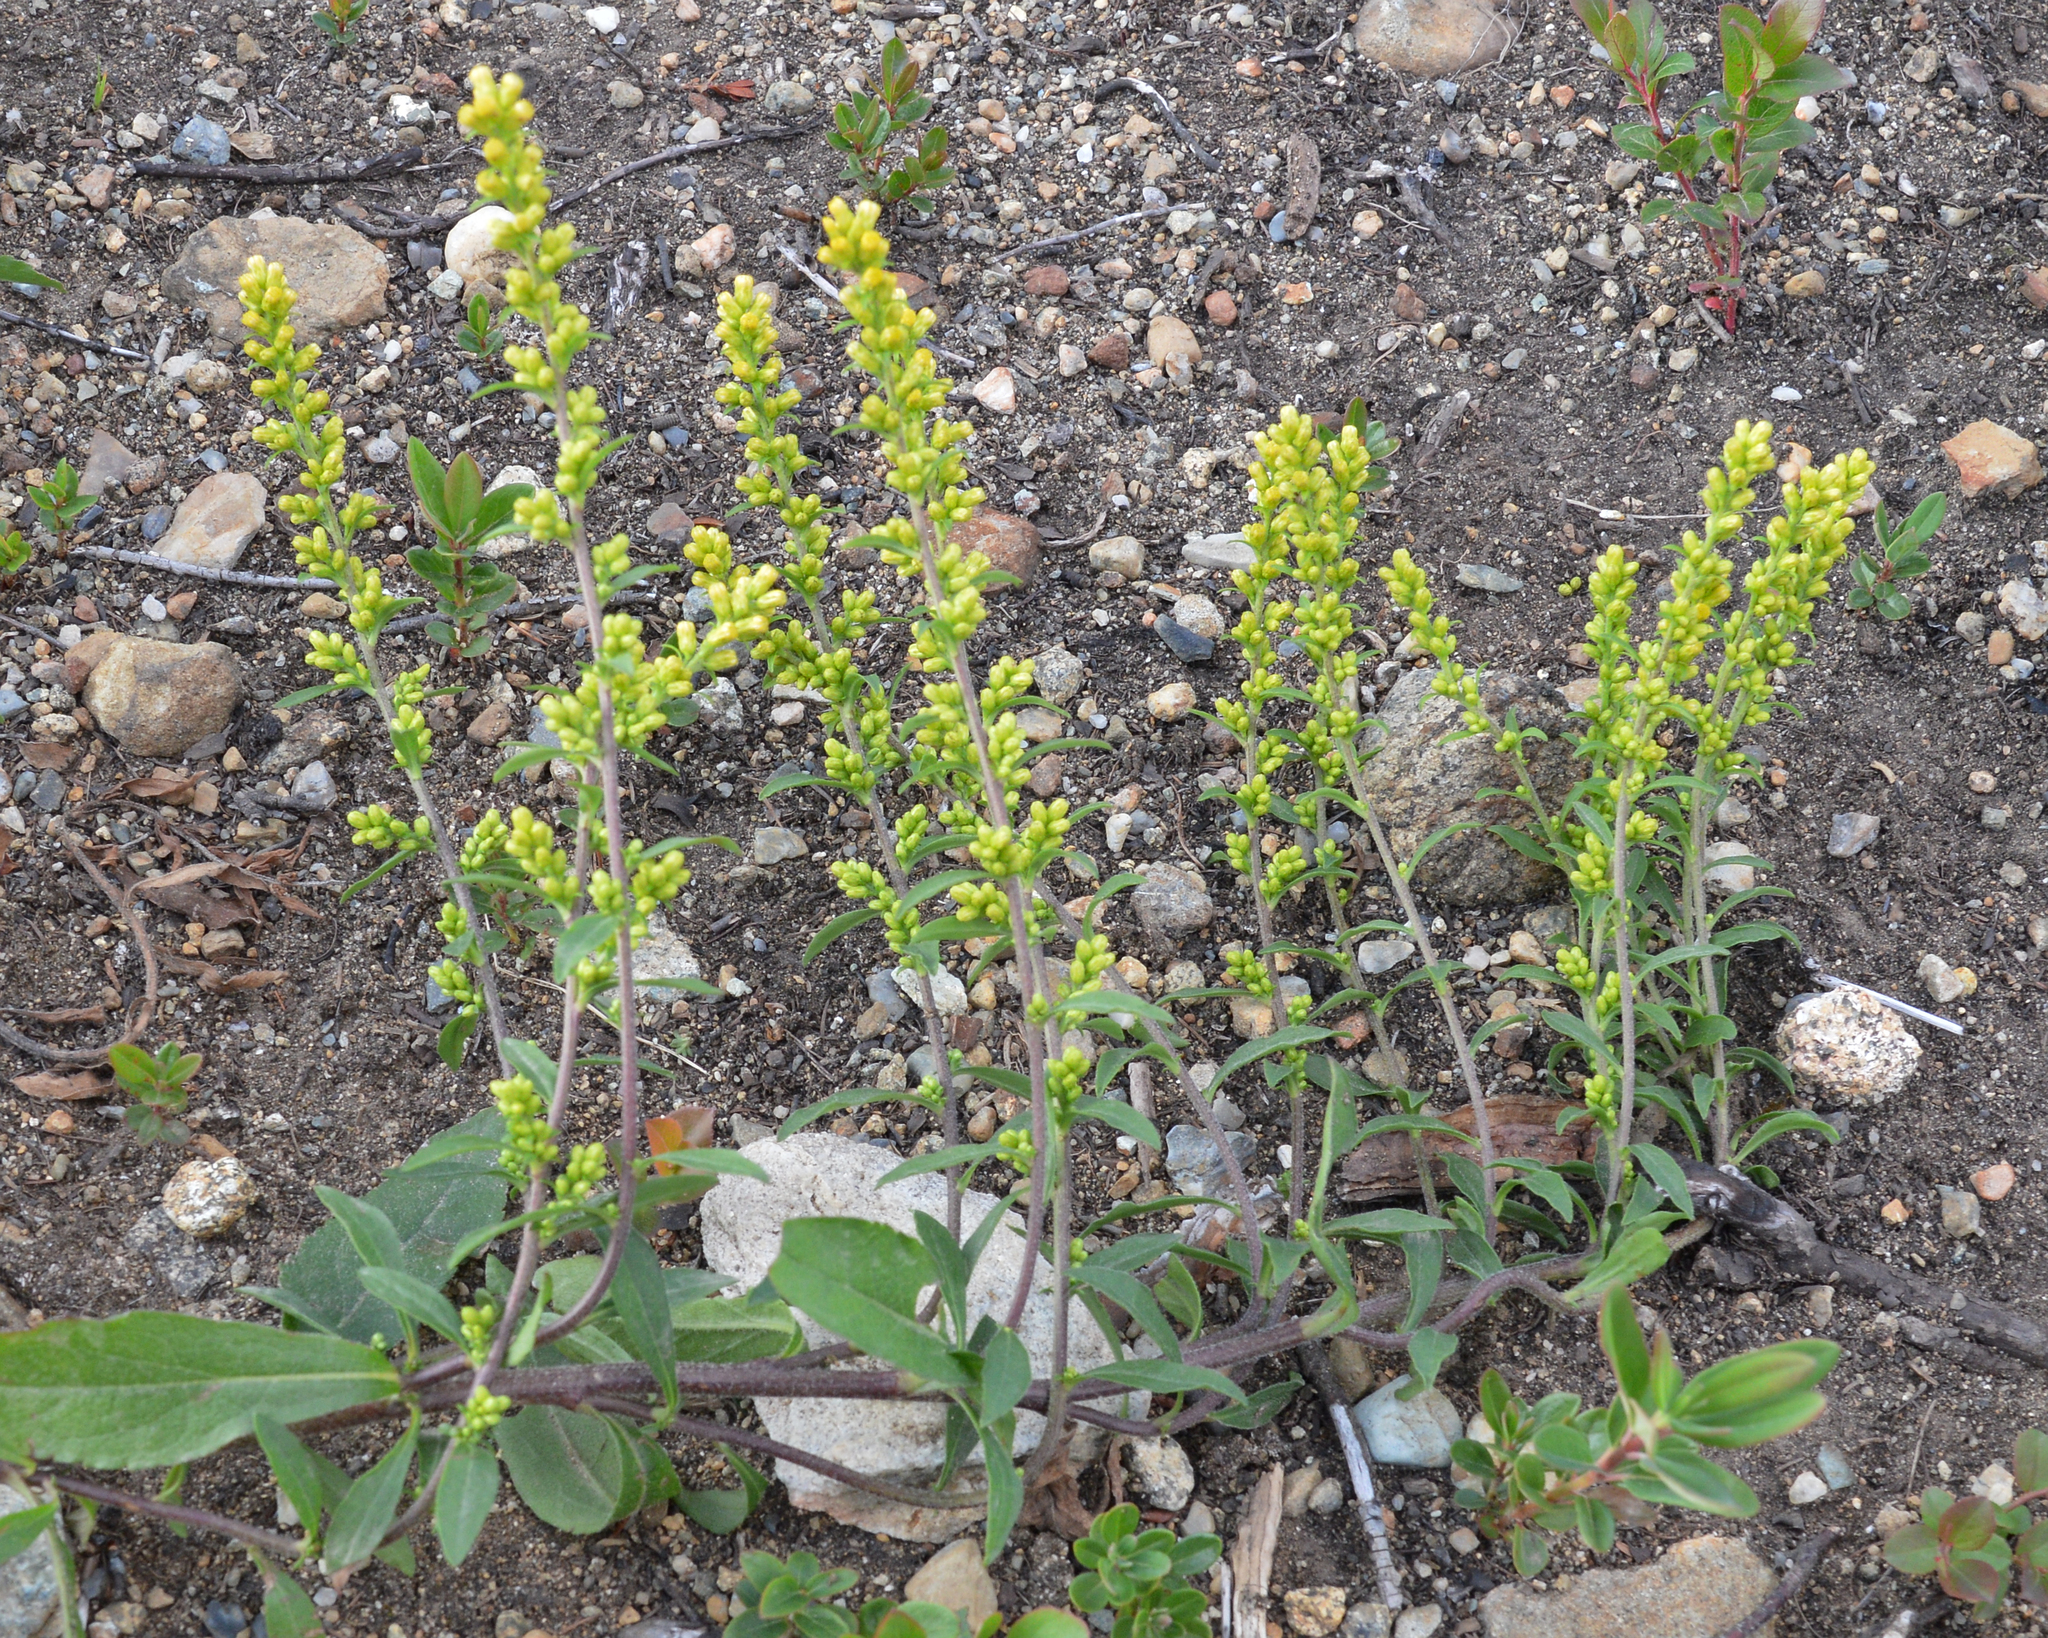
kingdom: Plantae
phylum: Tracheophyta
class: Magnoliopsida
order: Asterales
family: Asteraceae
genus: Solidago
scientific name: Solidago hispida
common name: Hairy goldenrod
